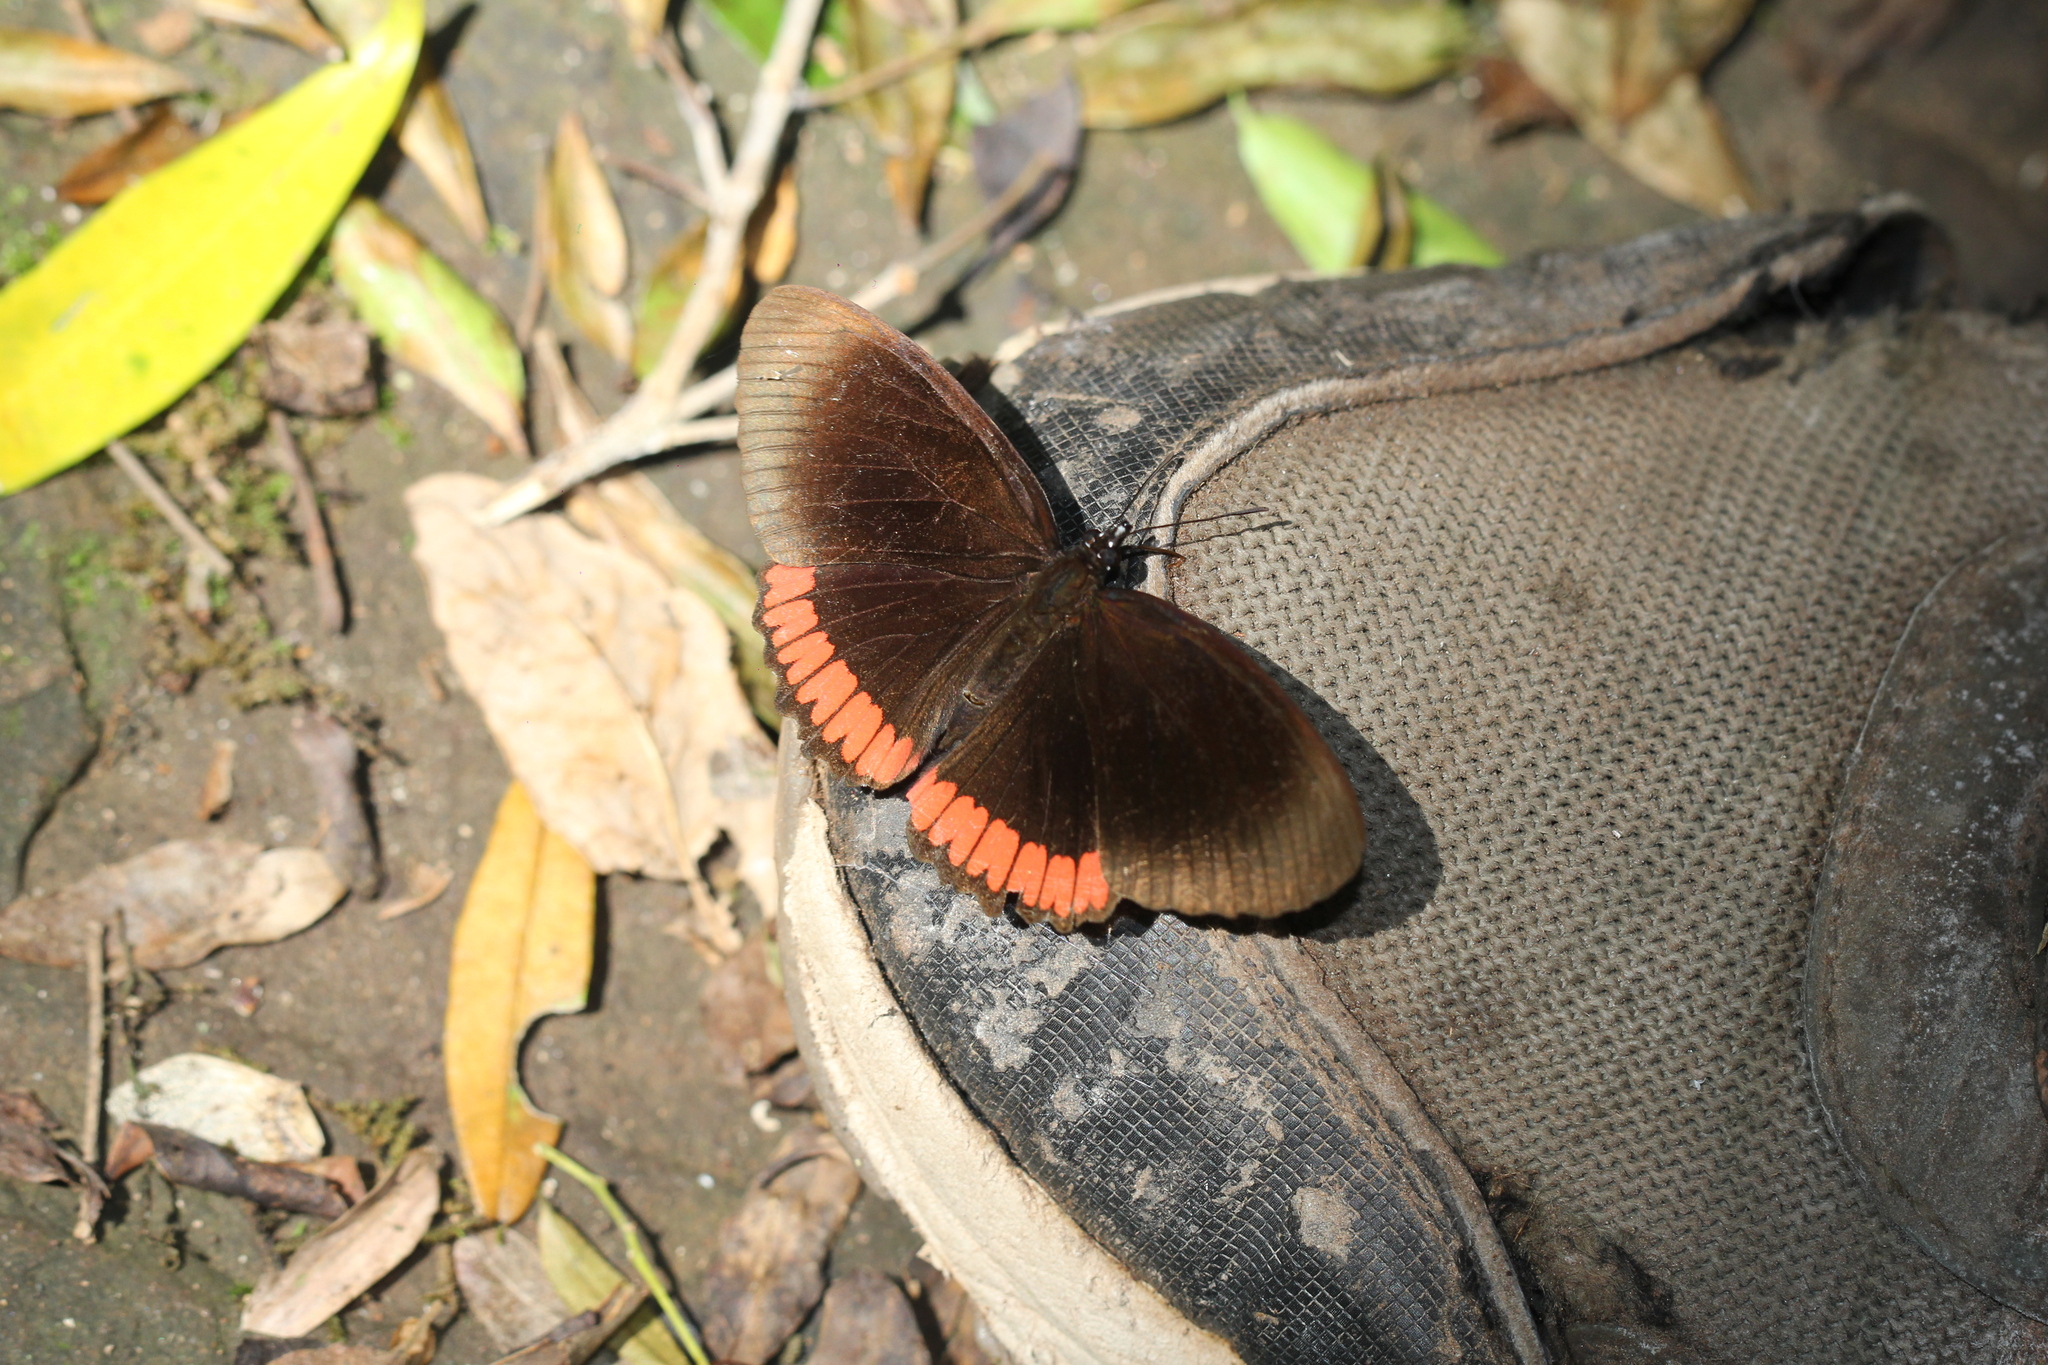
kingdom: Animalia
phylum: Arthropoda
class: Insecta
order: Lepidoptera
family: Sesiidae
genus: Sesia
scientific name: Sesia Biblis hyperia
